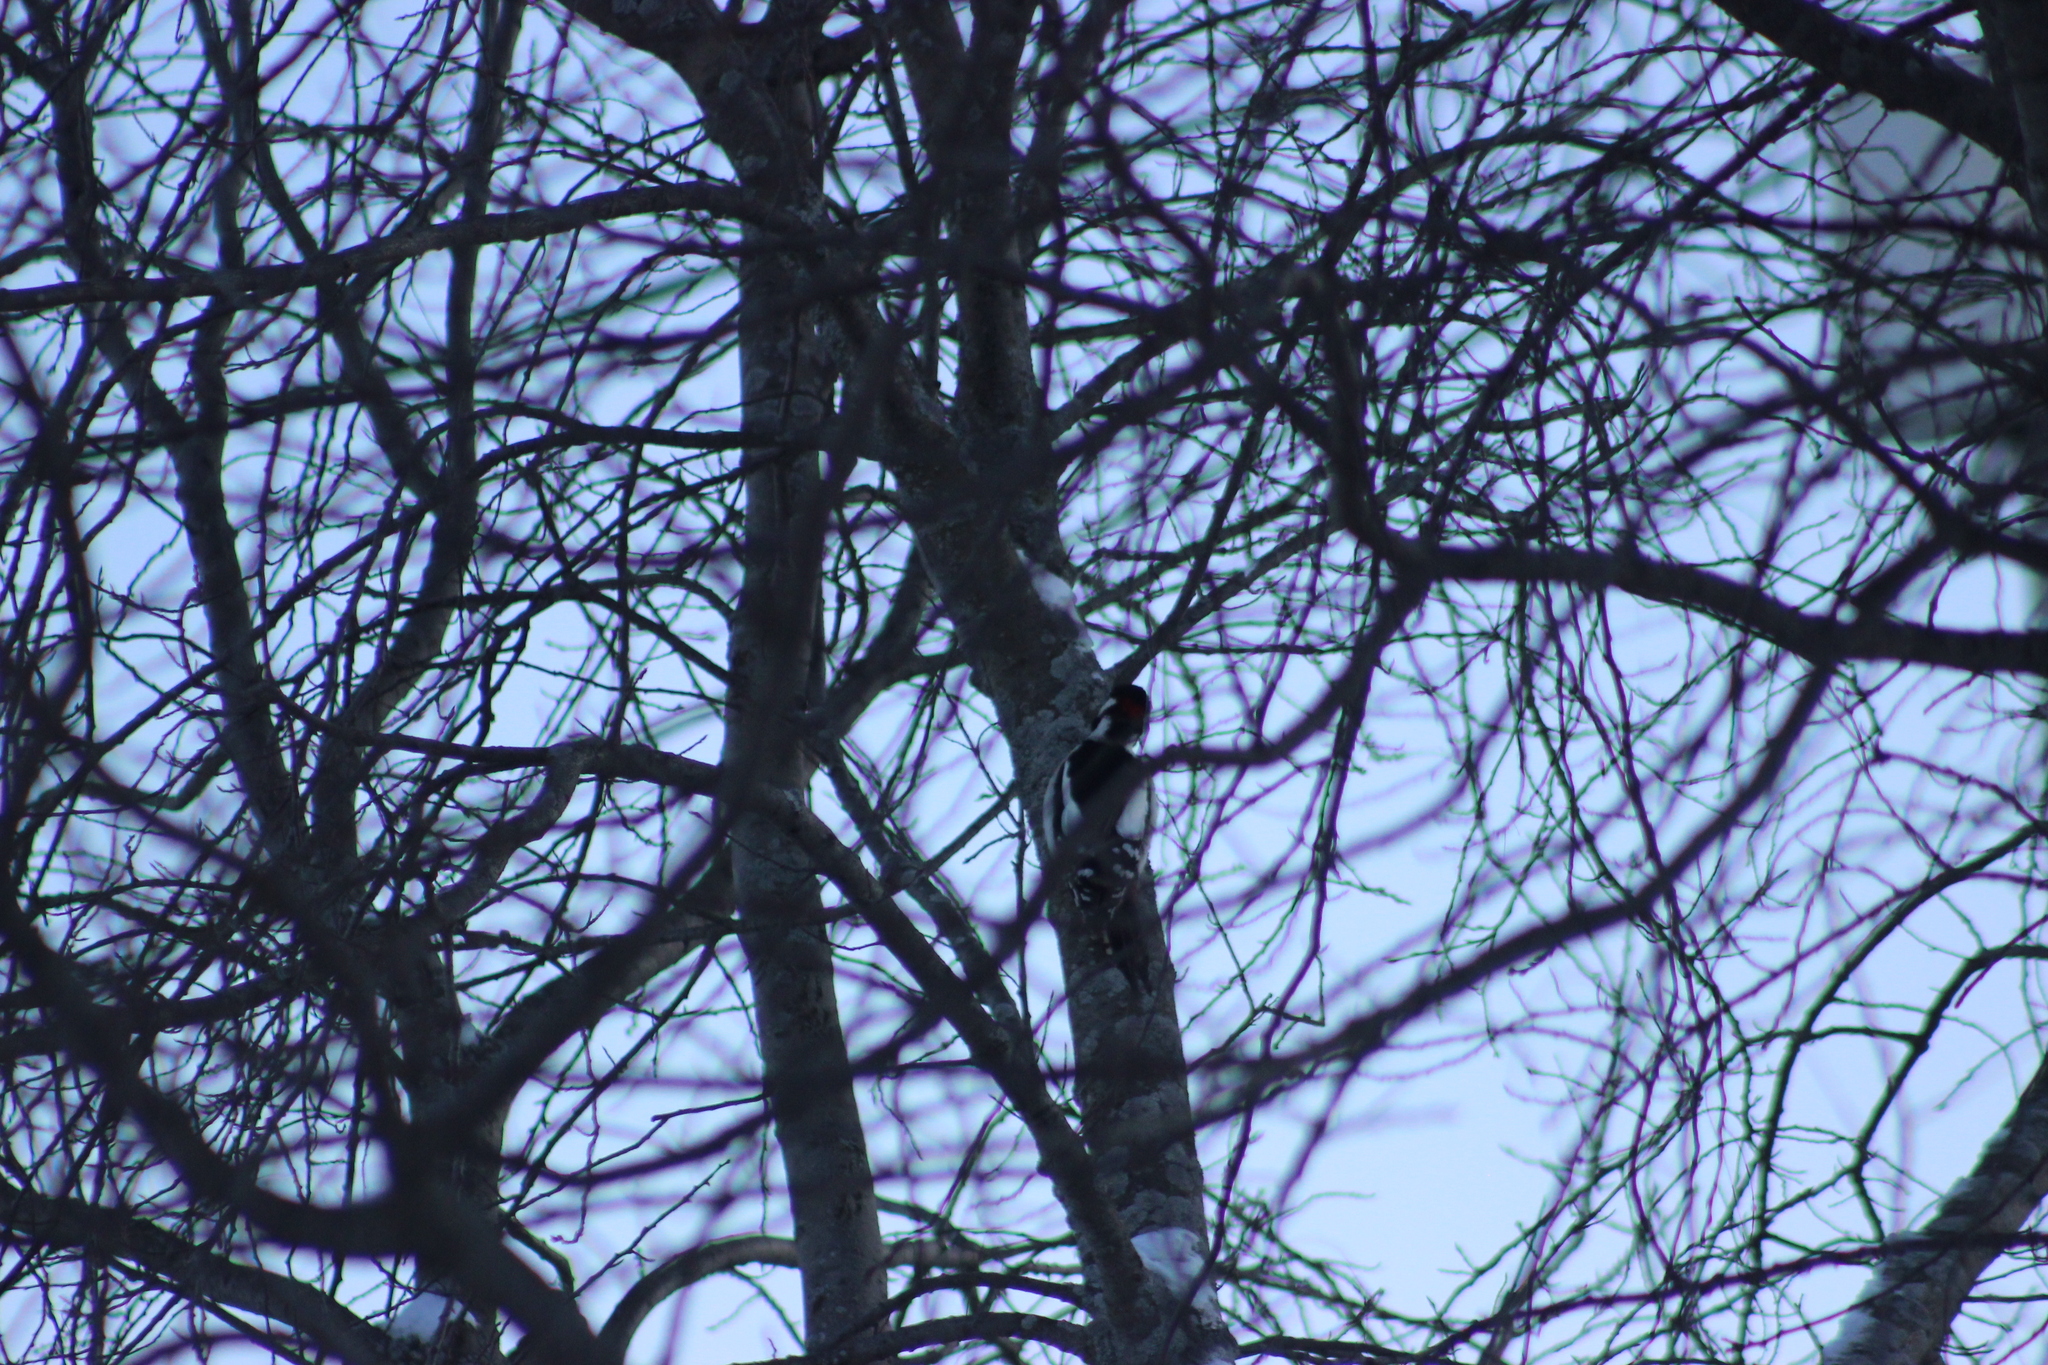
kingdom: Animalia
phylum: Chordata
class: Aves
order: Piciformes
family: Picidae
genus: Dendrocopos
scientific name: Dendrocopos major
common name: Great spotted woodpecker
